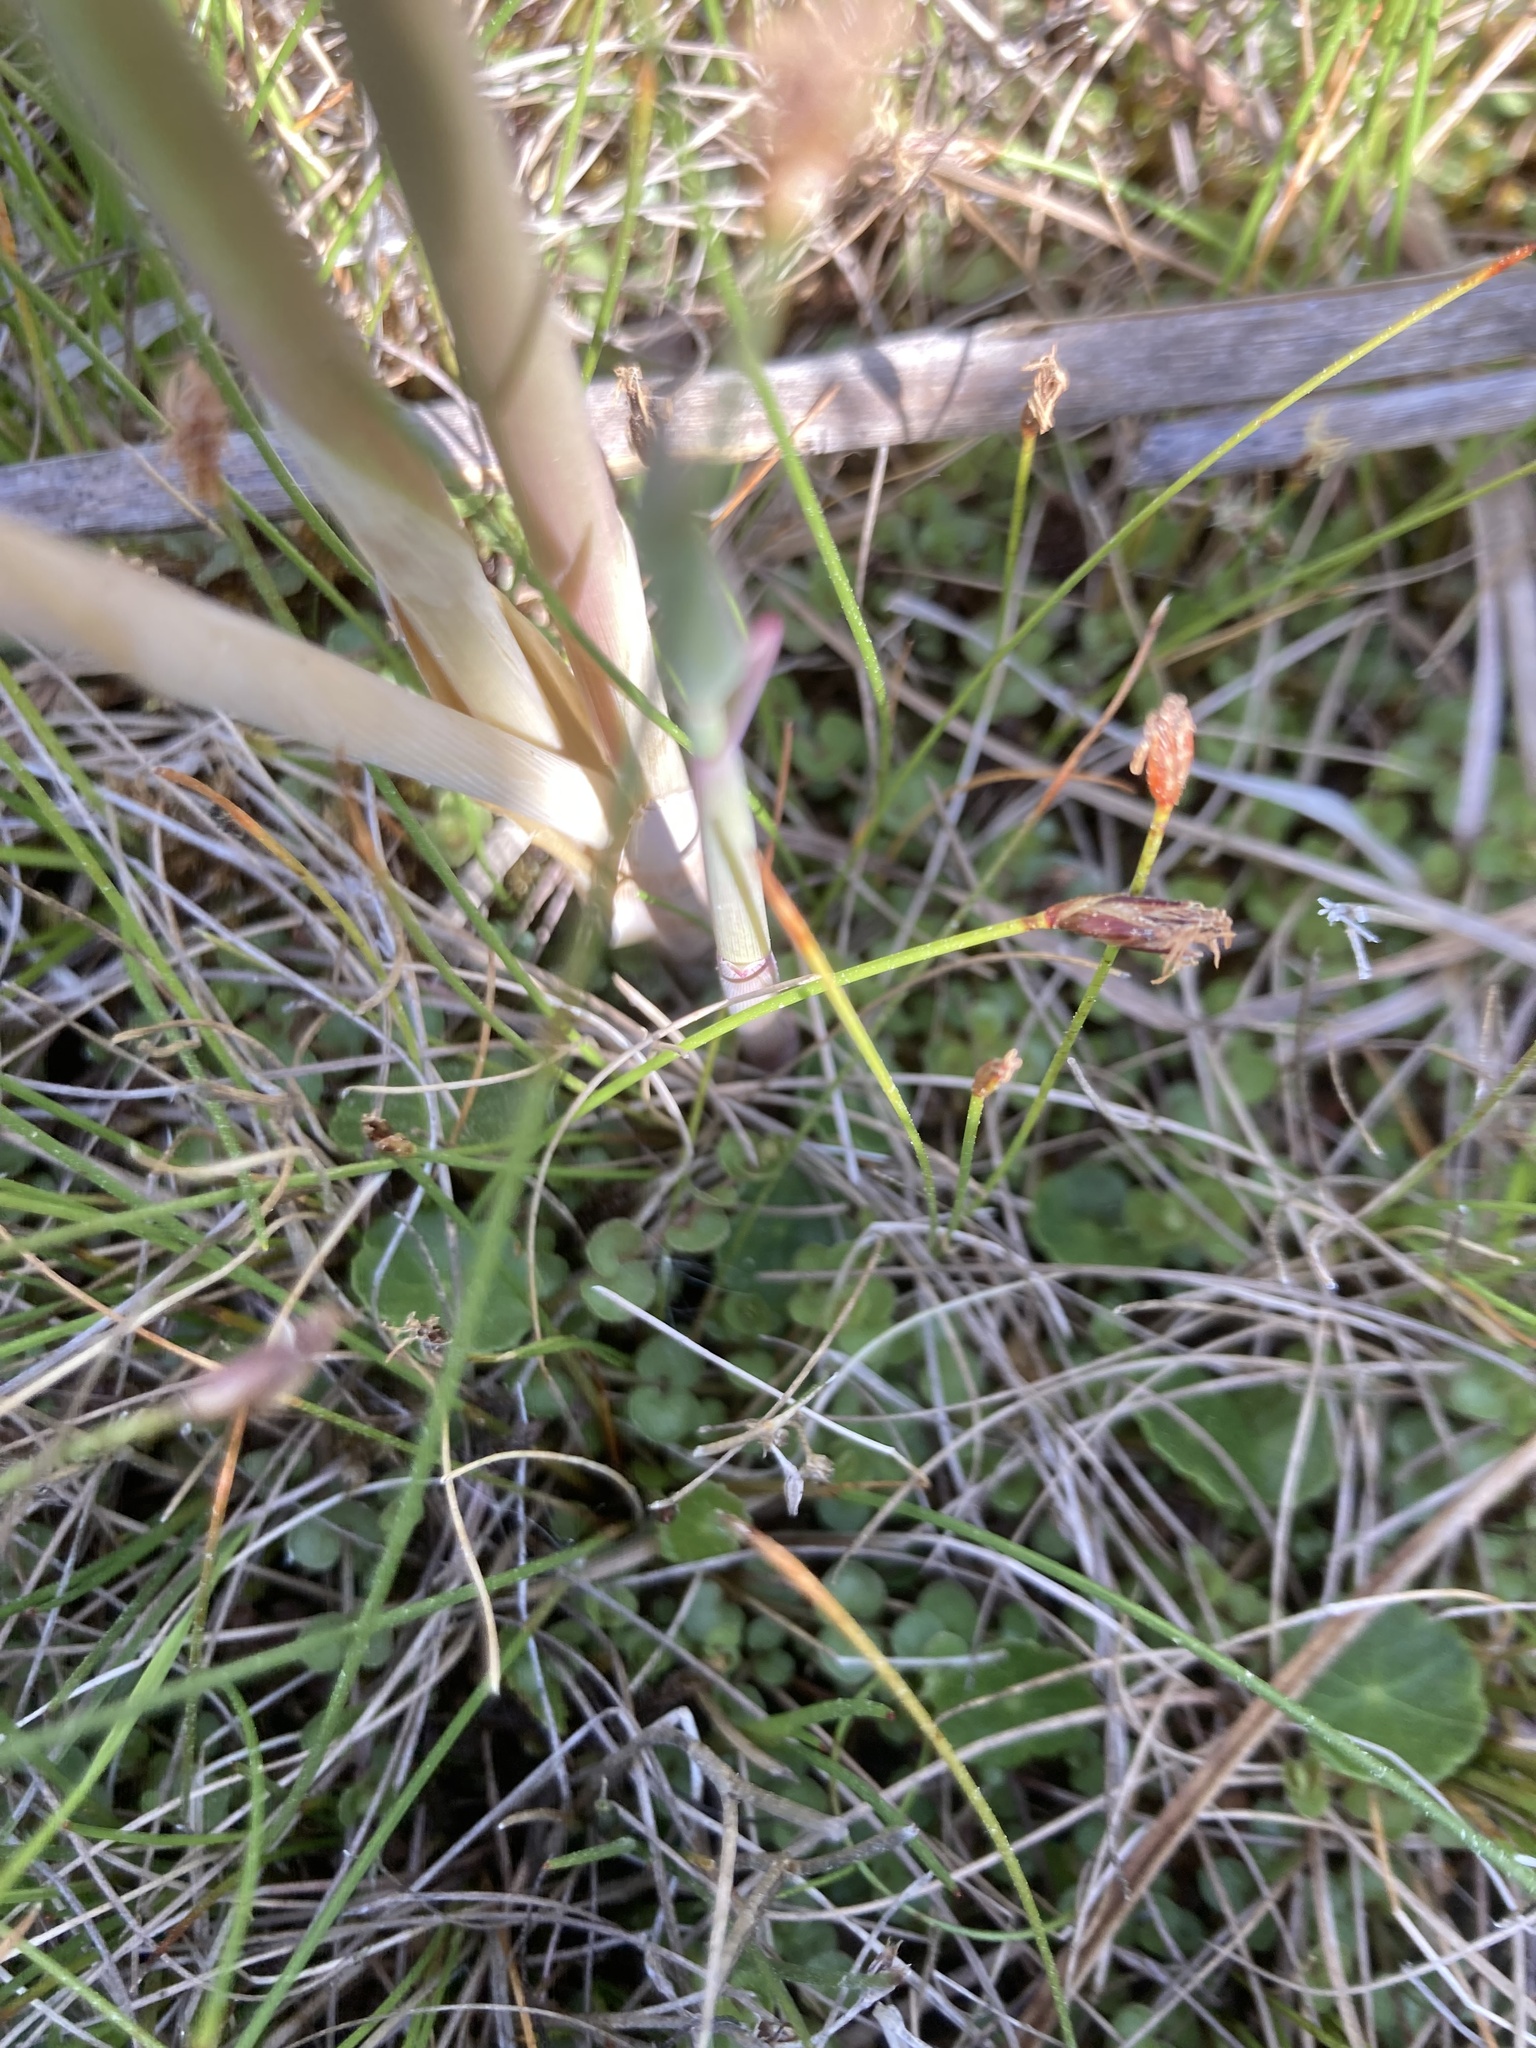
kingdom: Plantae
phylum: Tracheophyta
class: Magnoliopsida
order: Apiales
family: Araliaceae
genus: Hydrocotyle
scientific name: Hydrocotyle vulgaris
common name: Marsh pennywort
